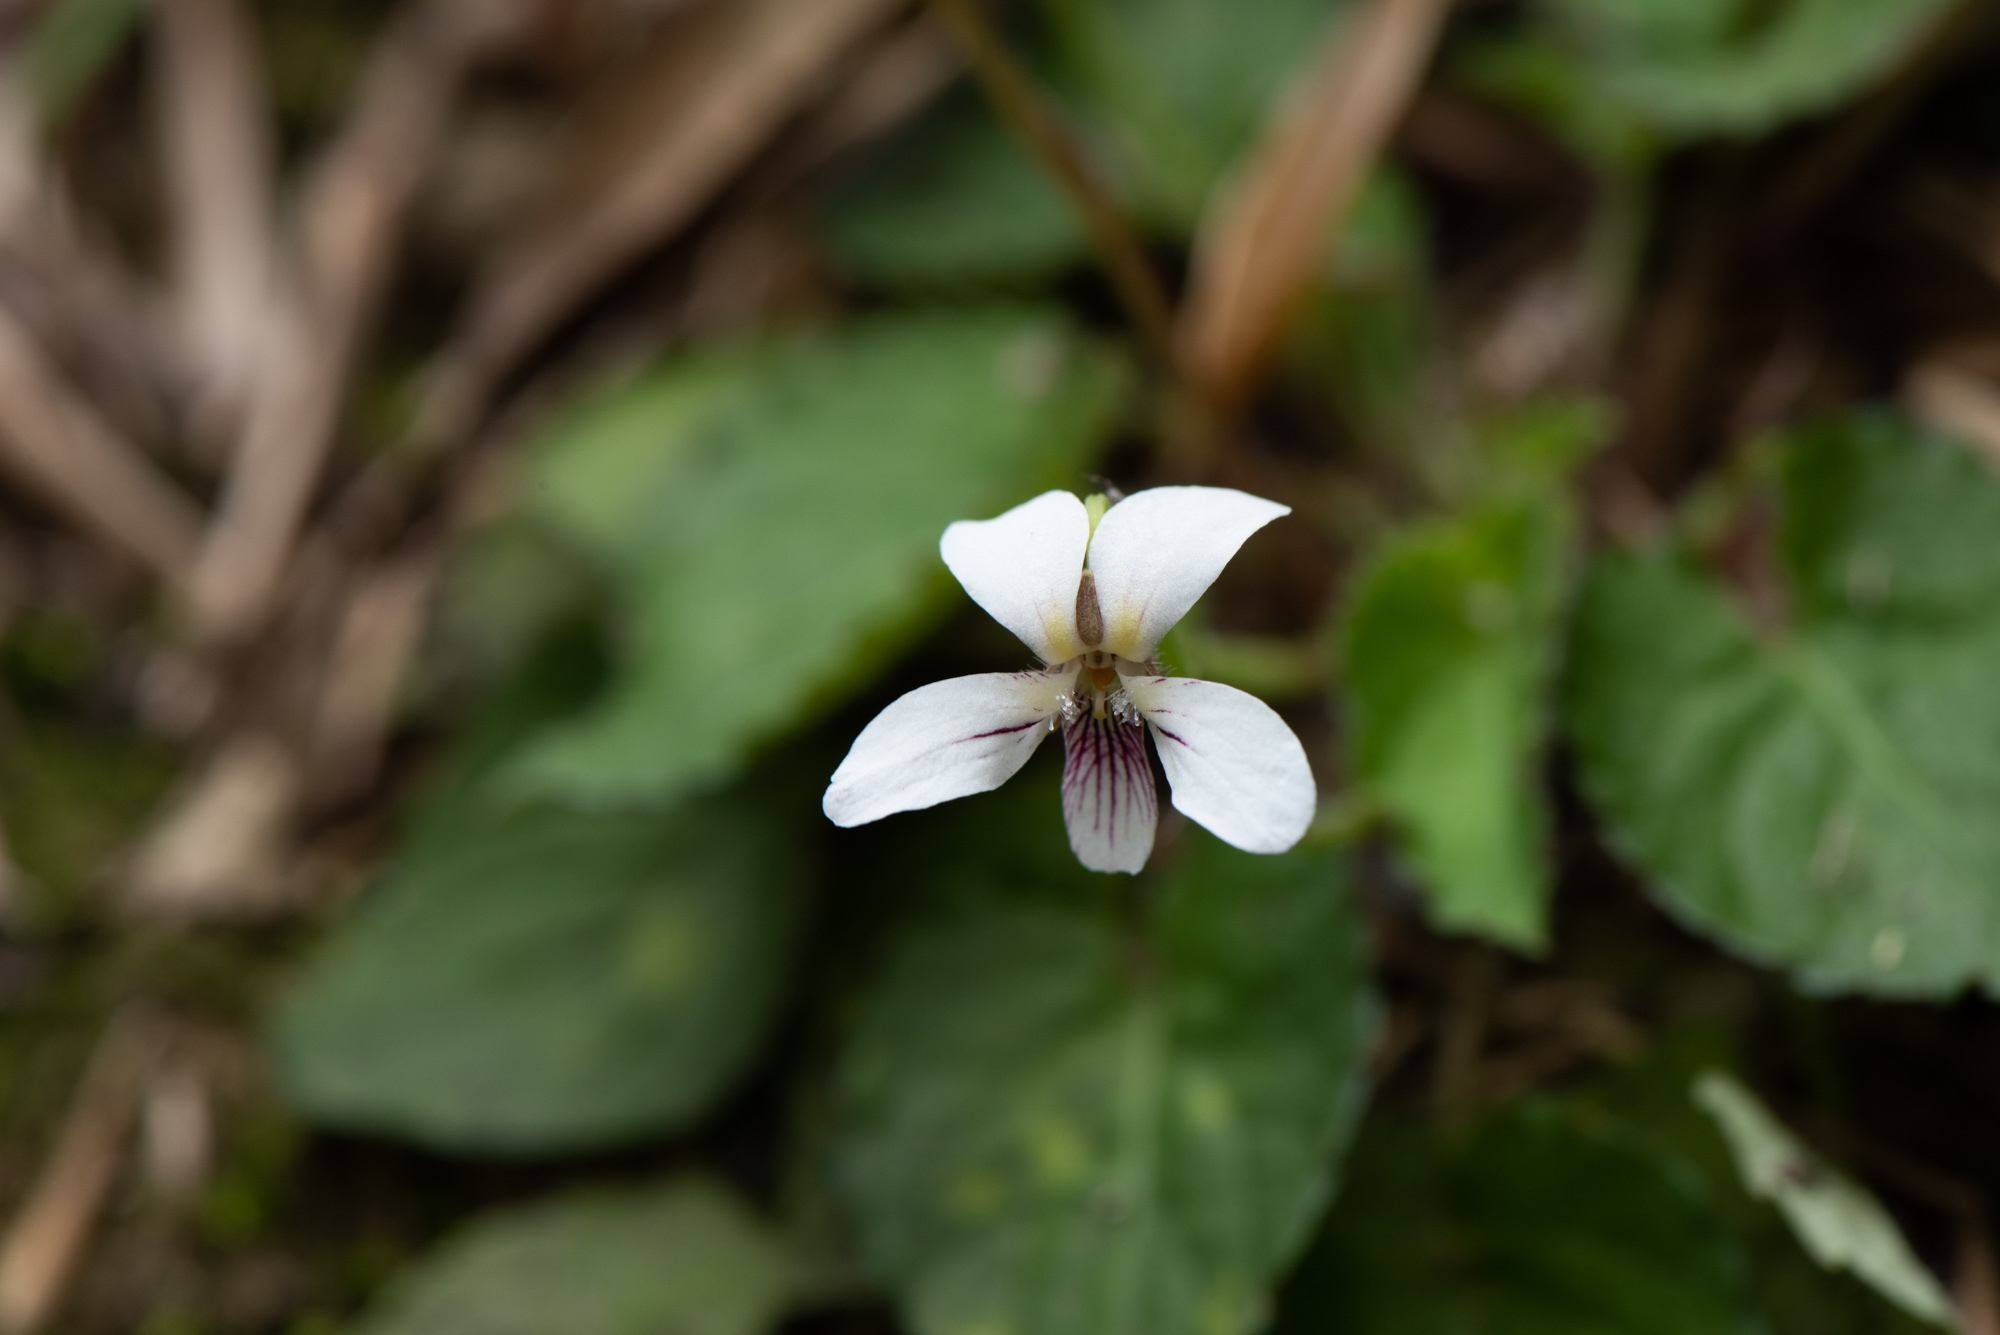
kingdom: Plantae
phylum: Tracheophyta
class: Magnoliopsida
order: Malpighiales
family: Violaceae
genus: Viola
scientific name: Viola adenothrix
